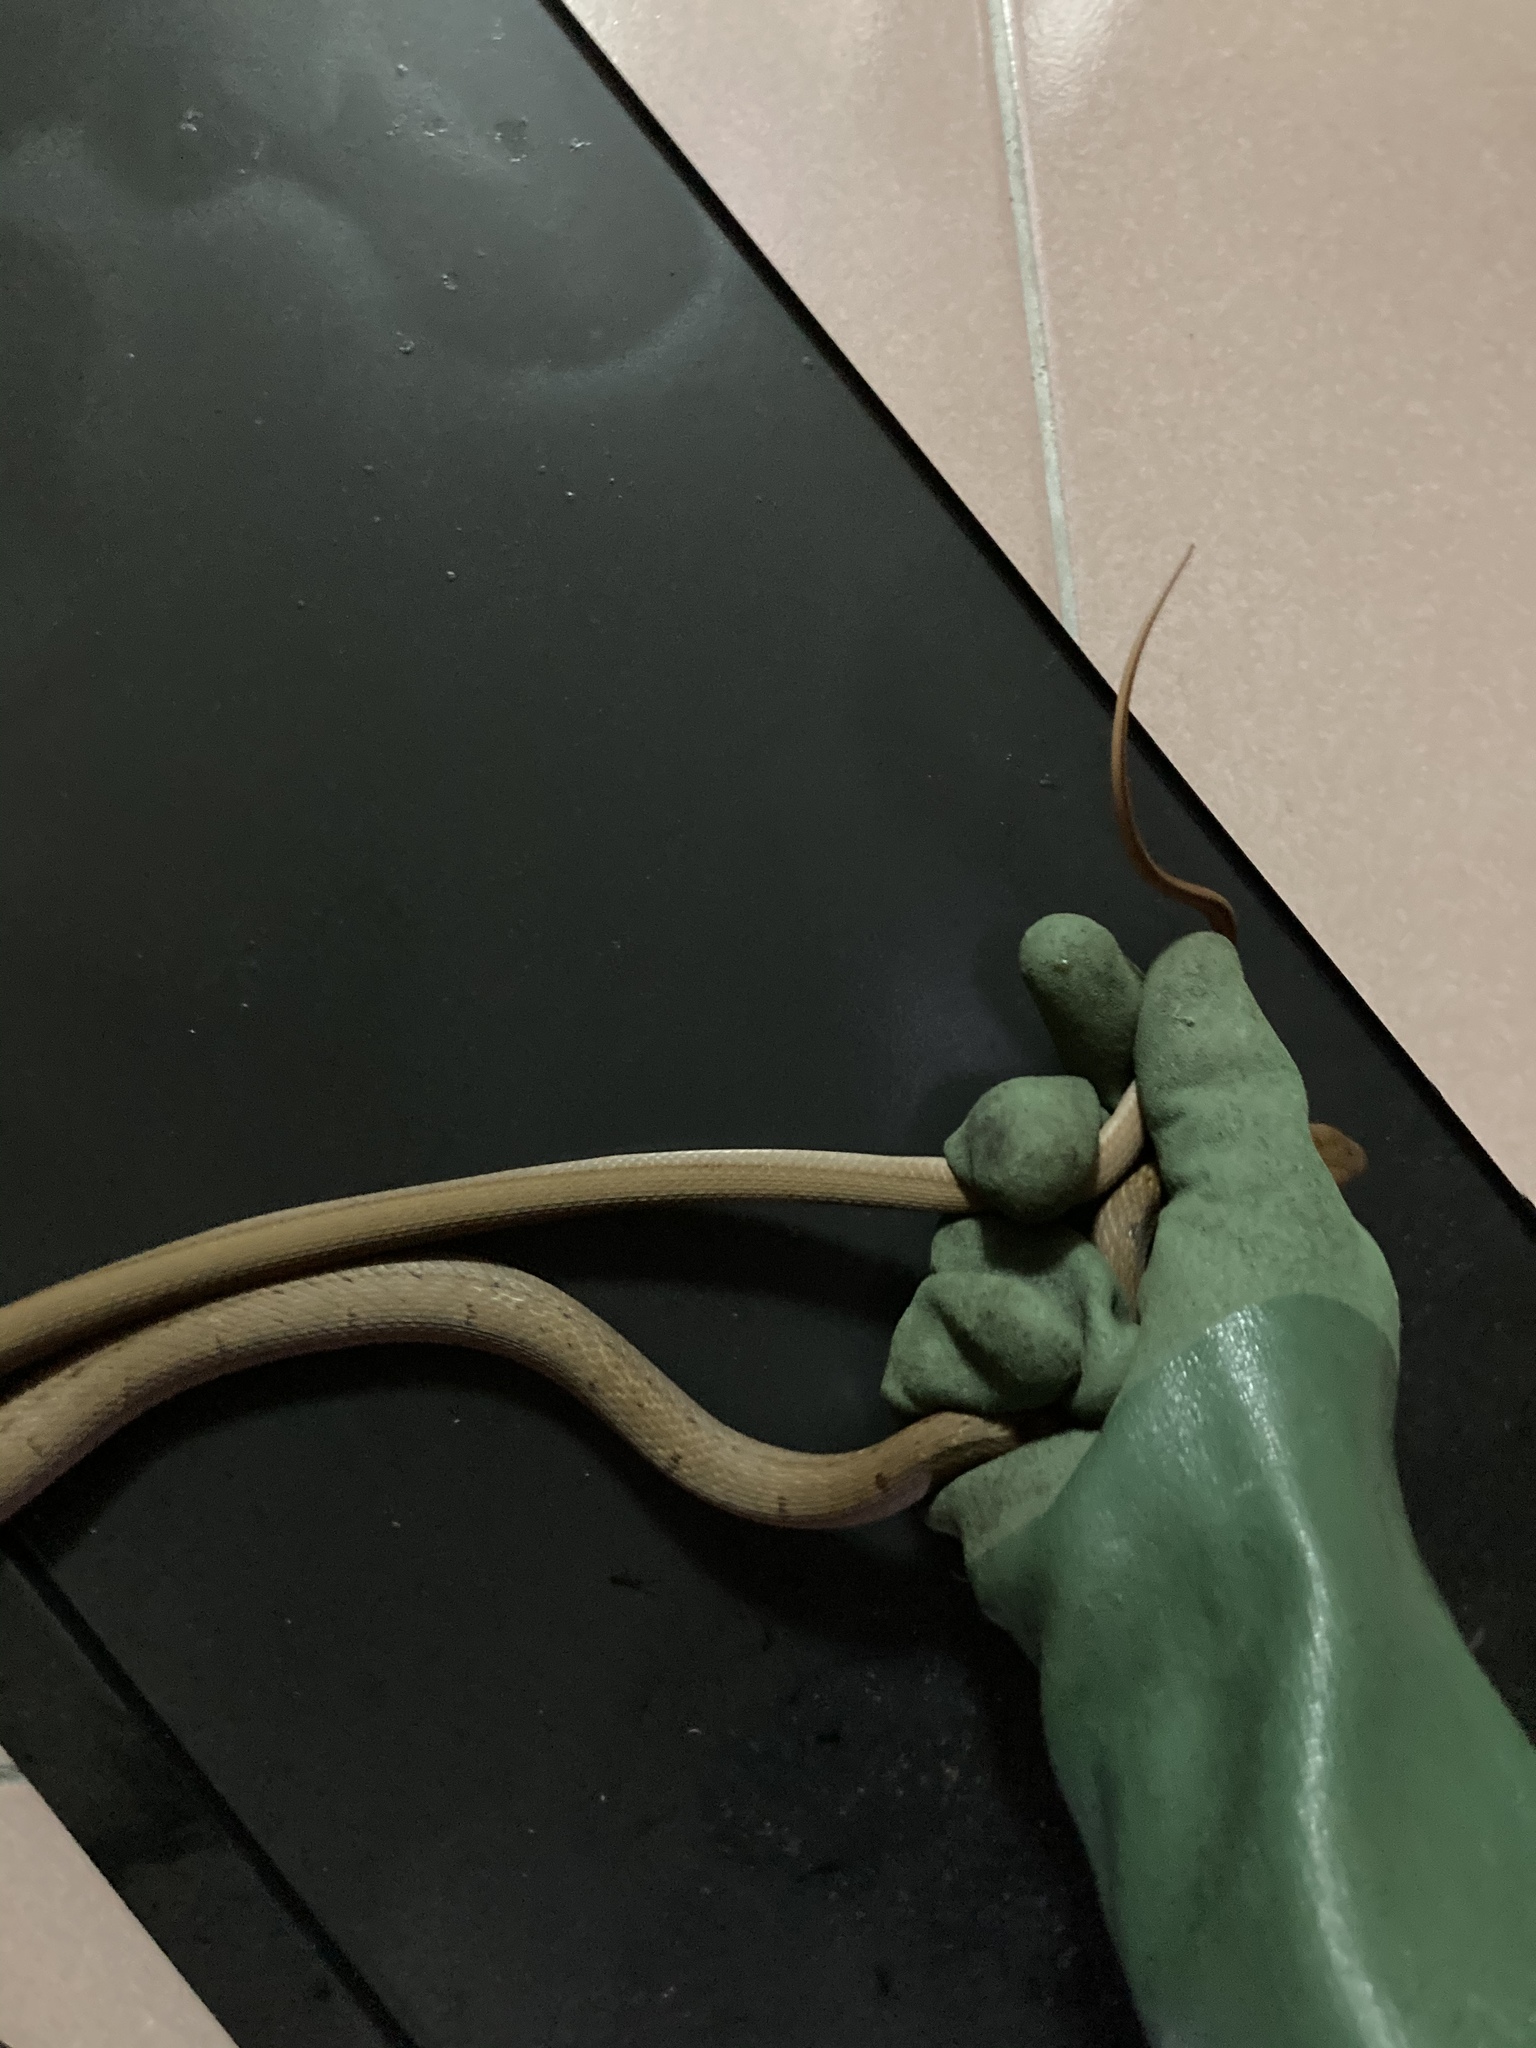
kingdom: Animalia
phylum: Chordata
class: Squamata
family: Colubridae
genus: Elaphe
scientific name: Elaphe carinata
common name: Taiwan stink snake
